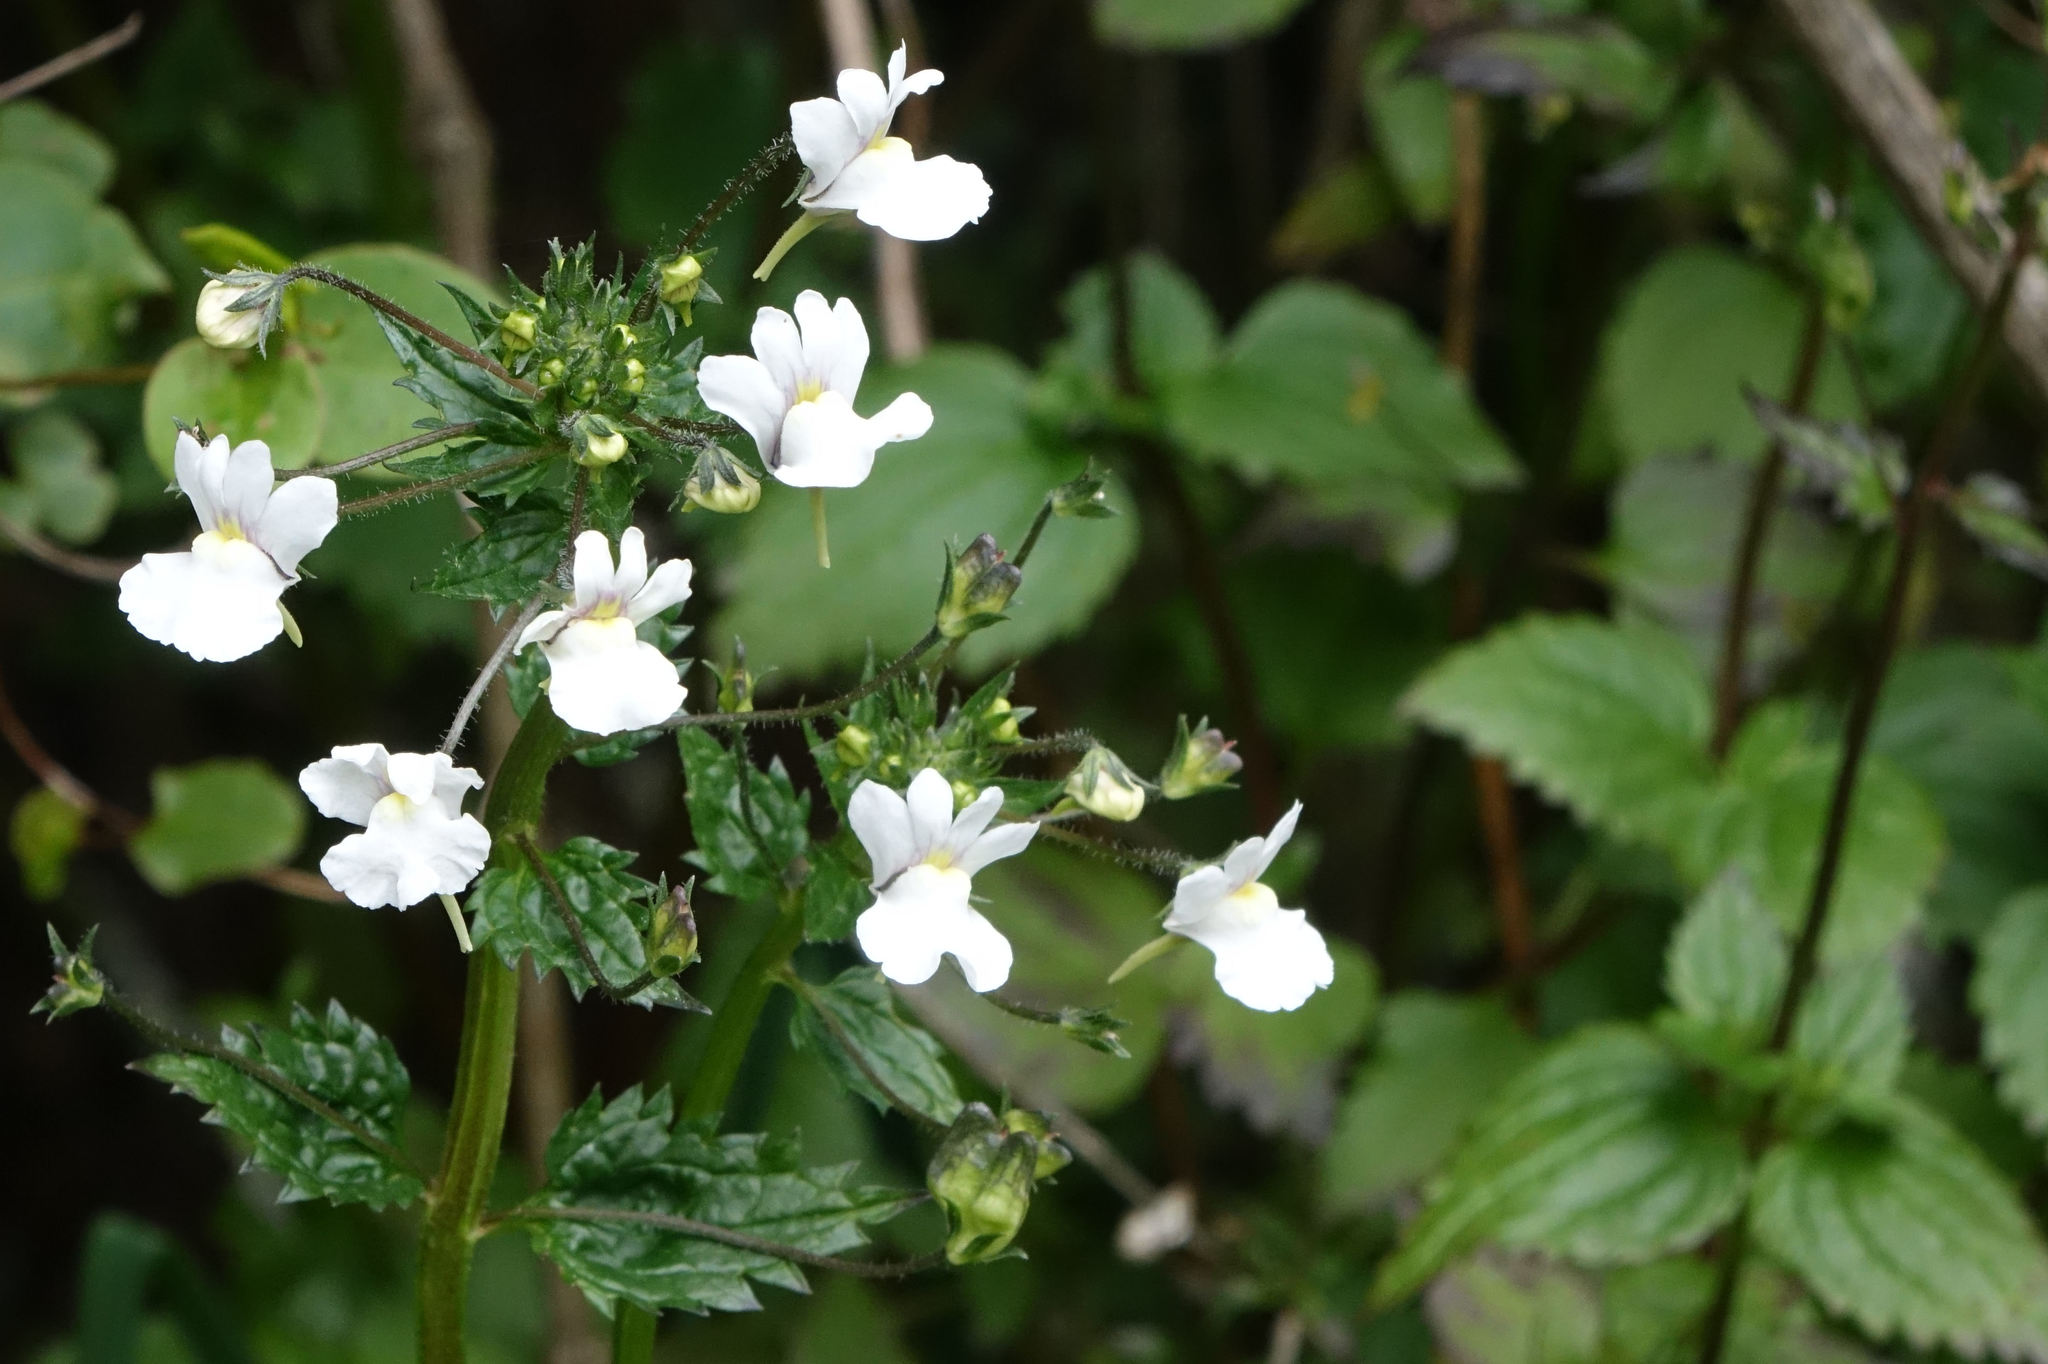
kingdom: Plantae
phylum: Tracheophyta
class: Magnoliopsida
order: Lamiales
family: Scrophulariaceae
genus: Nemesia
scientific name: Nemesia floribunda
